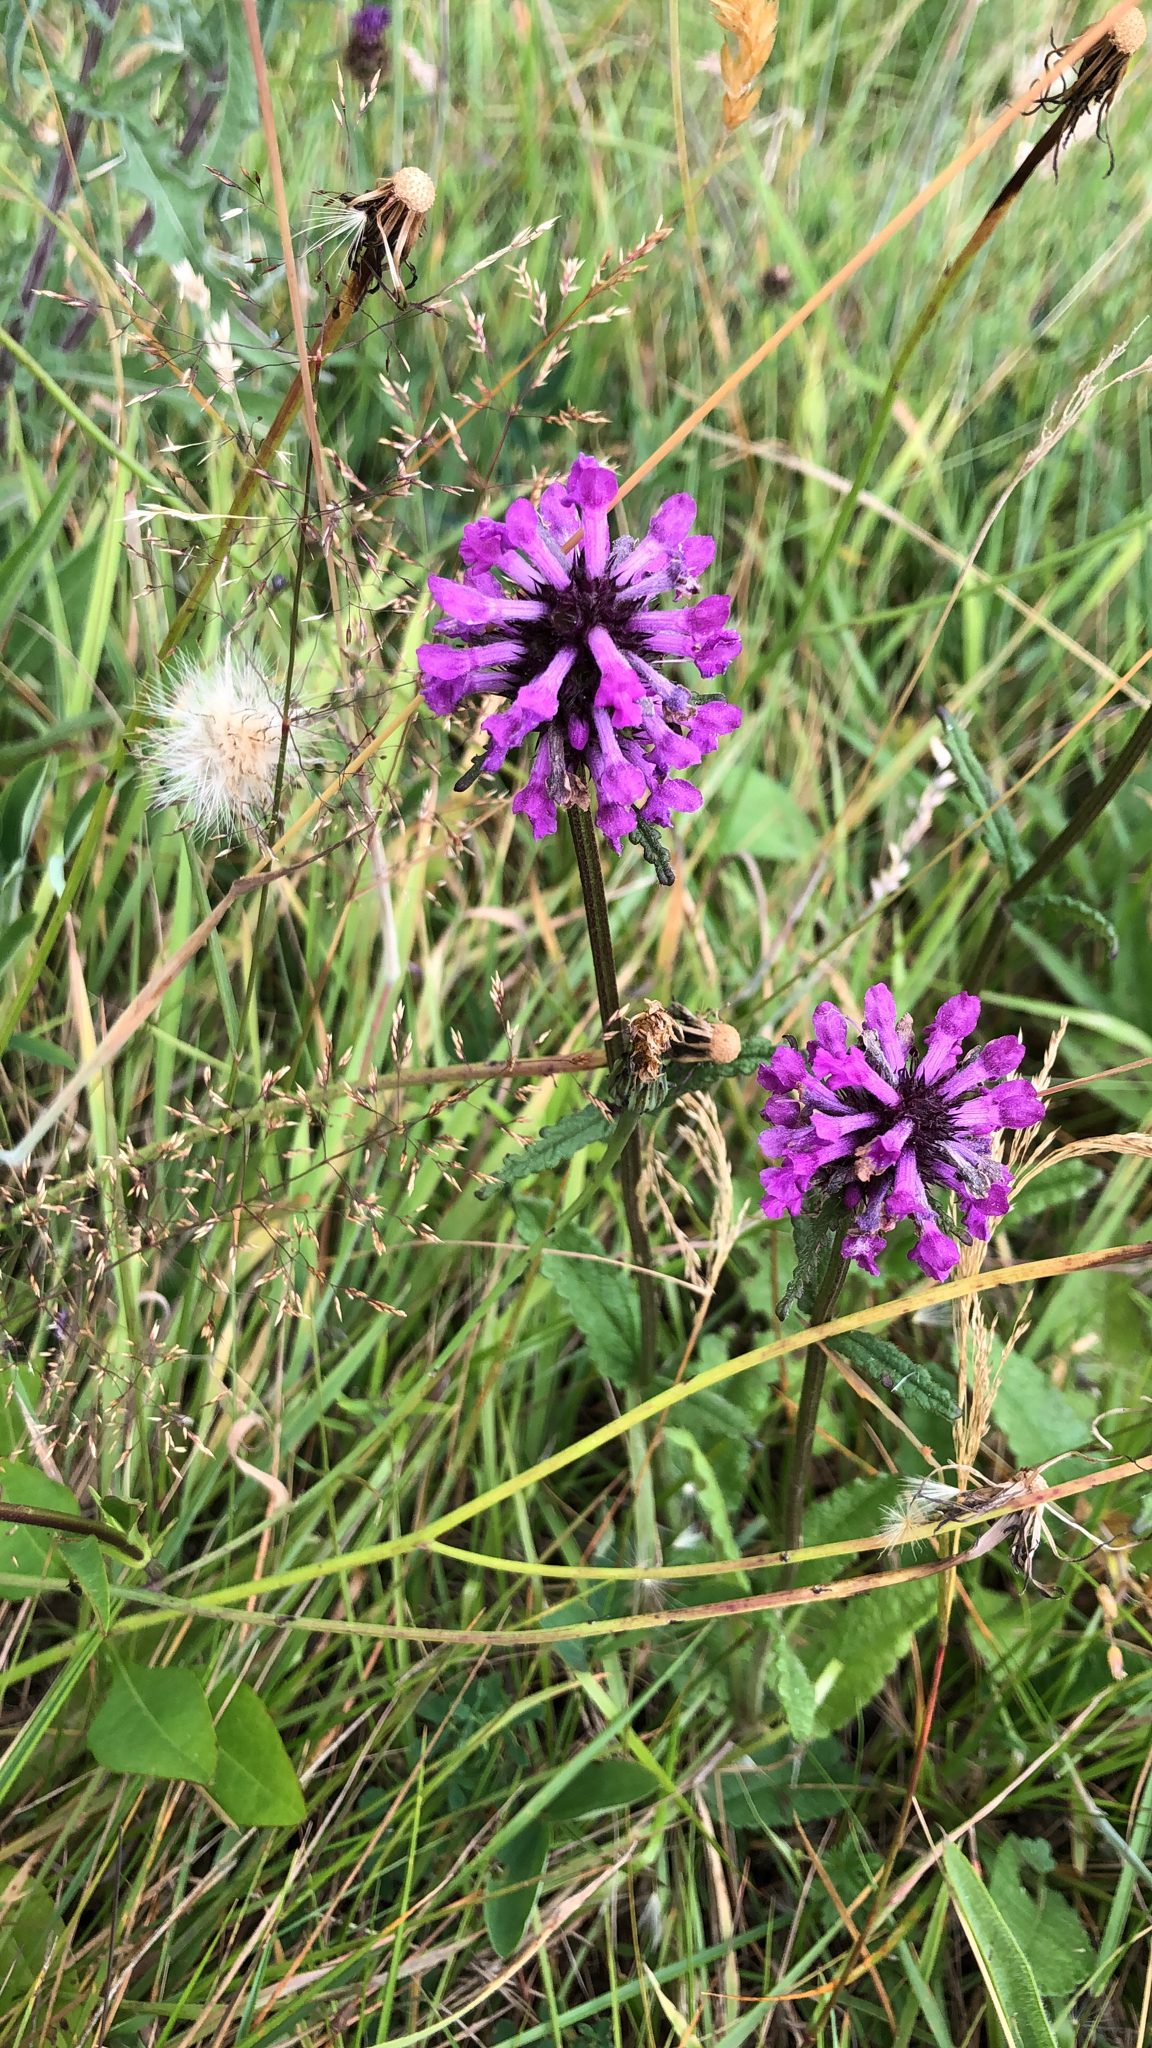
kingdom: Plantae
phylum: Tracheophyta
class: Magnoliopsida
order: Lamiales
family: Lamiaceae
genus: Betonica
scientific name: Betonica officinalis
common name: Bishop's-wort
